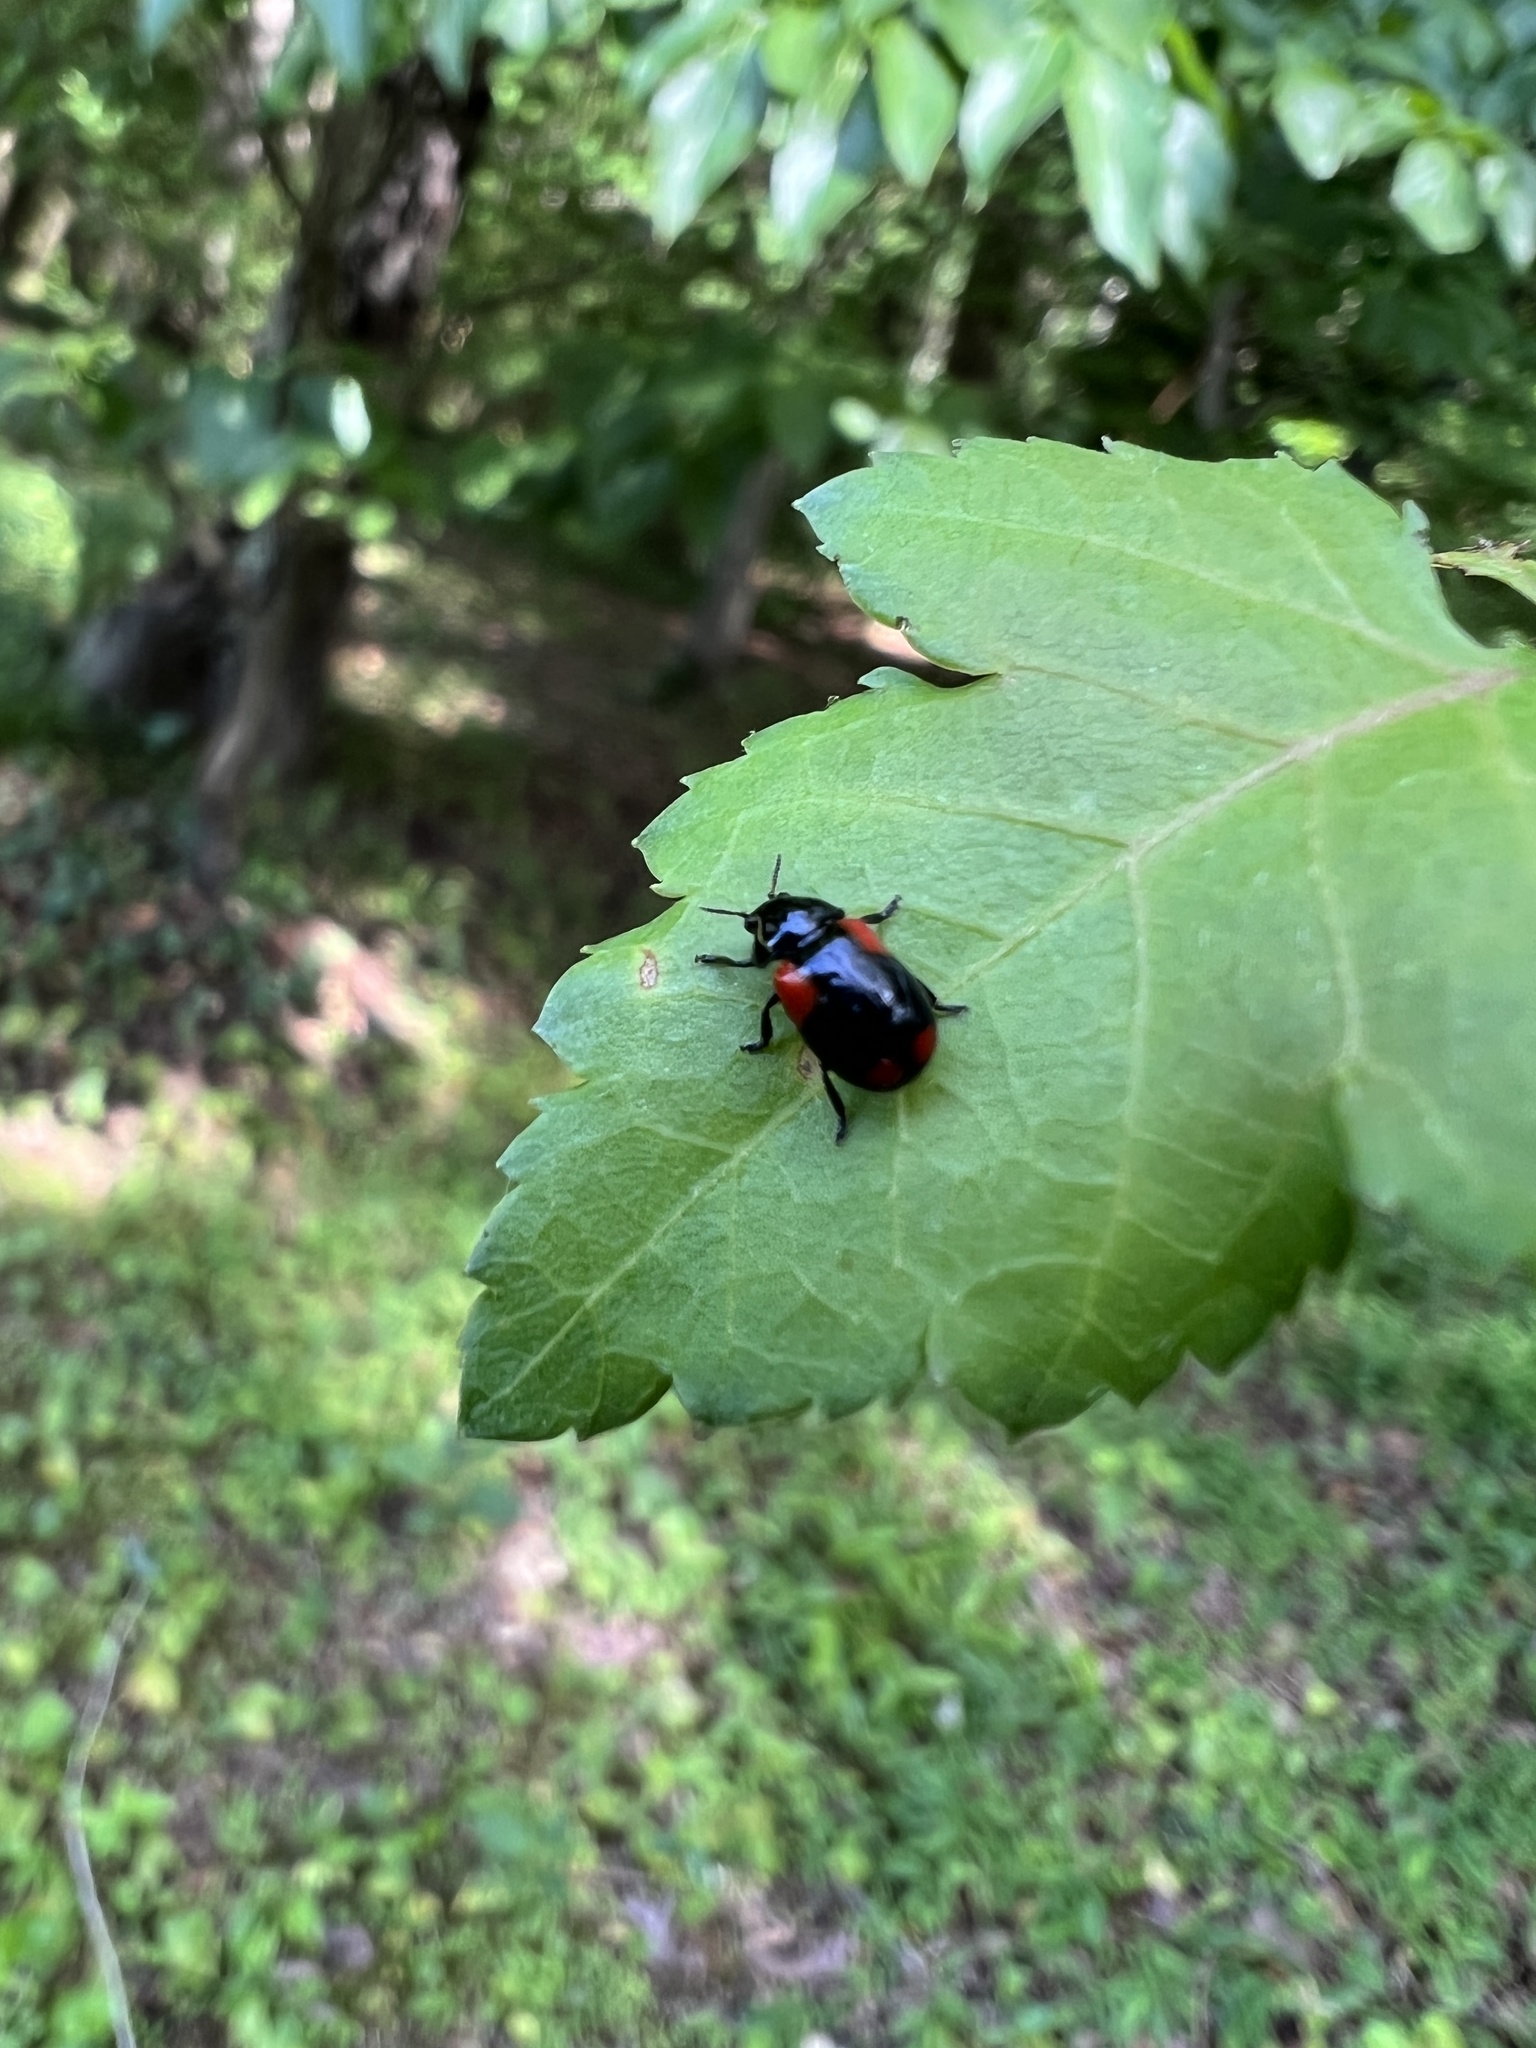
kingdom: Animalia
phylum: Arthropoda
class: Insecta
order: Coleoptera
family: Chrysomelidae
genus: Babia
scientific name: Babia quadriguttata
